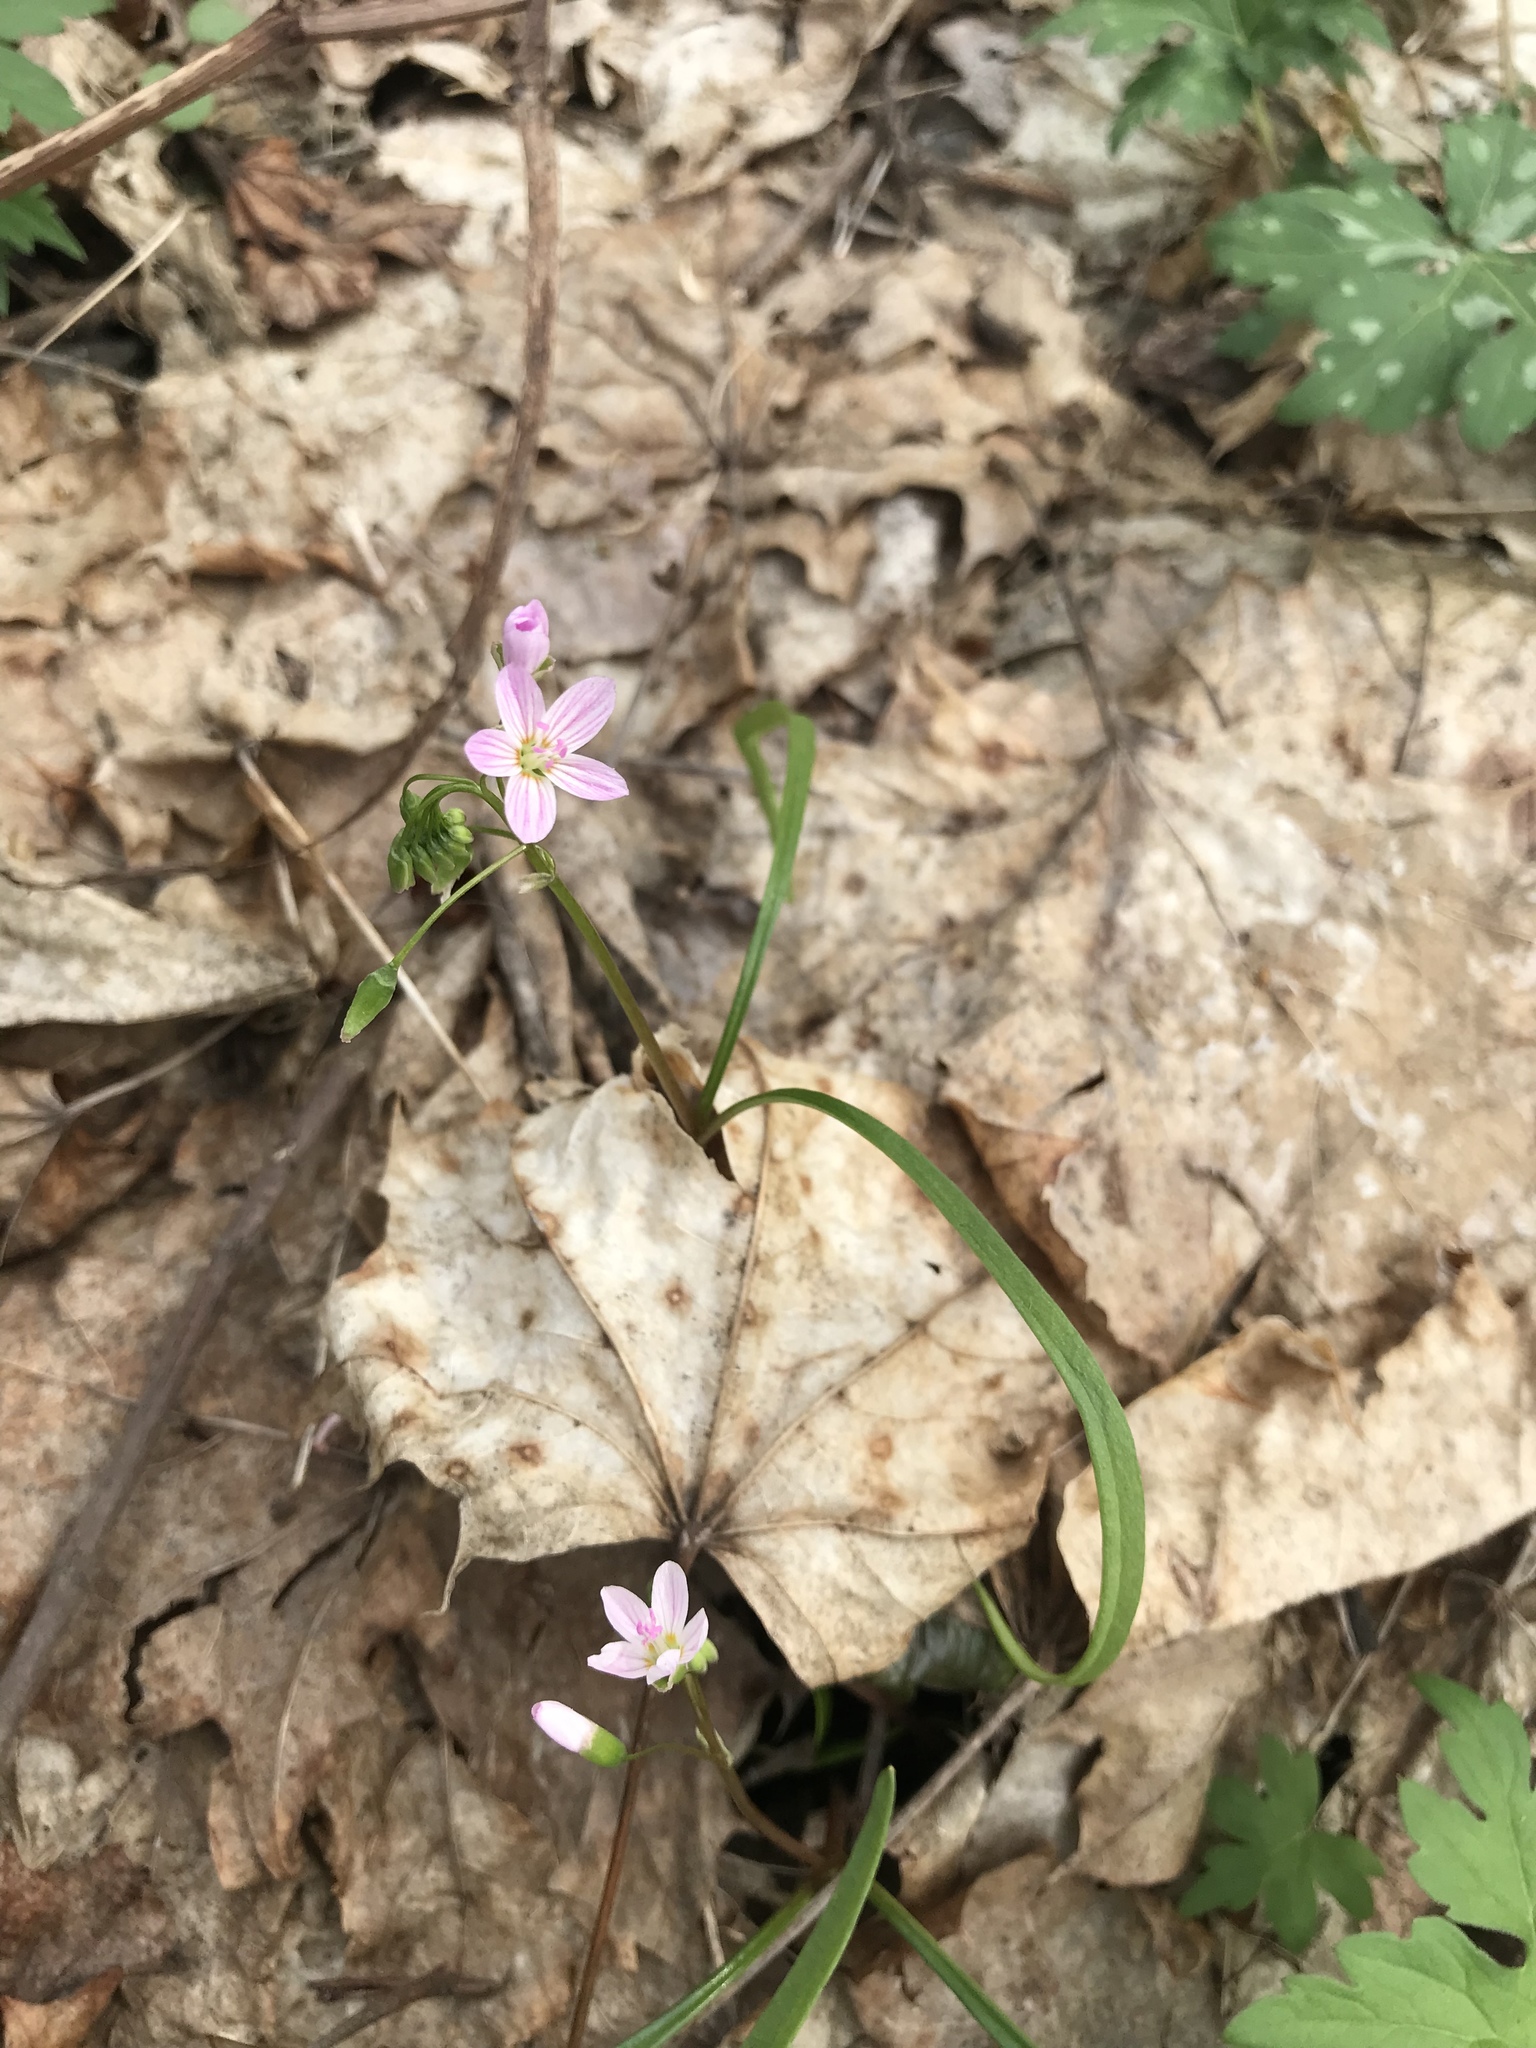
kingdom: Plantae
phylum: Tracheophyta
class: Magnoliopsida
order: Caryophyllales
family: Montiaceae
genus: Claytonia
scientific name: Claytonia virginica
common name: Virginia springbeauty
